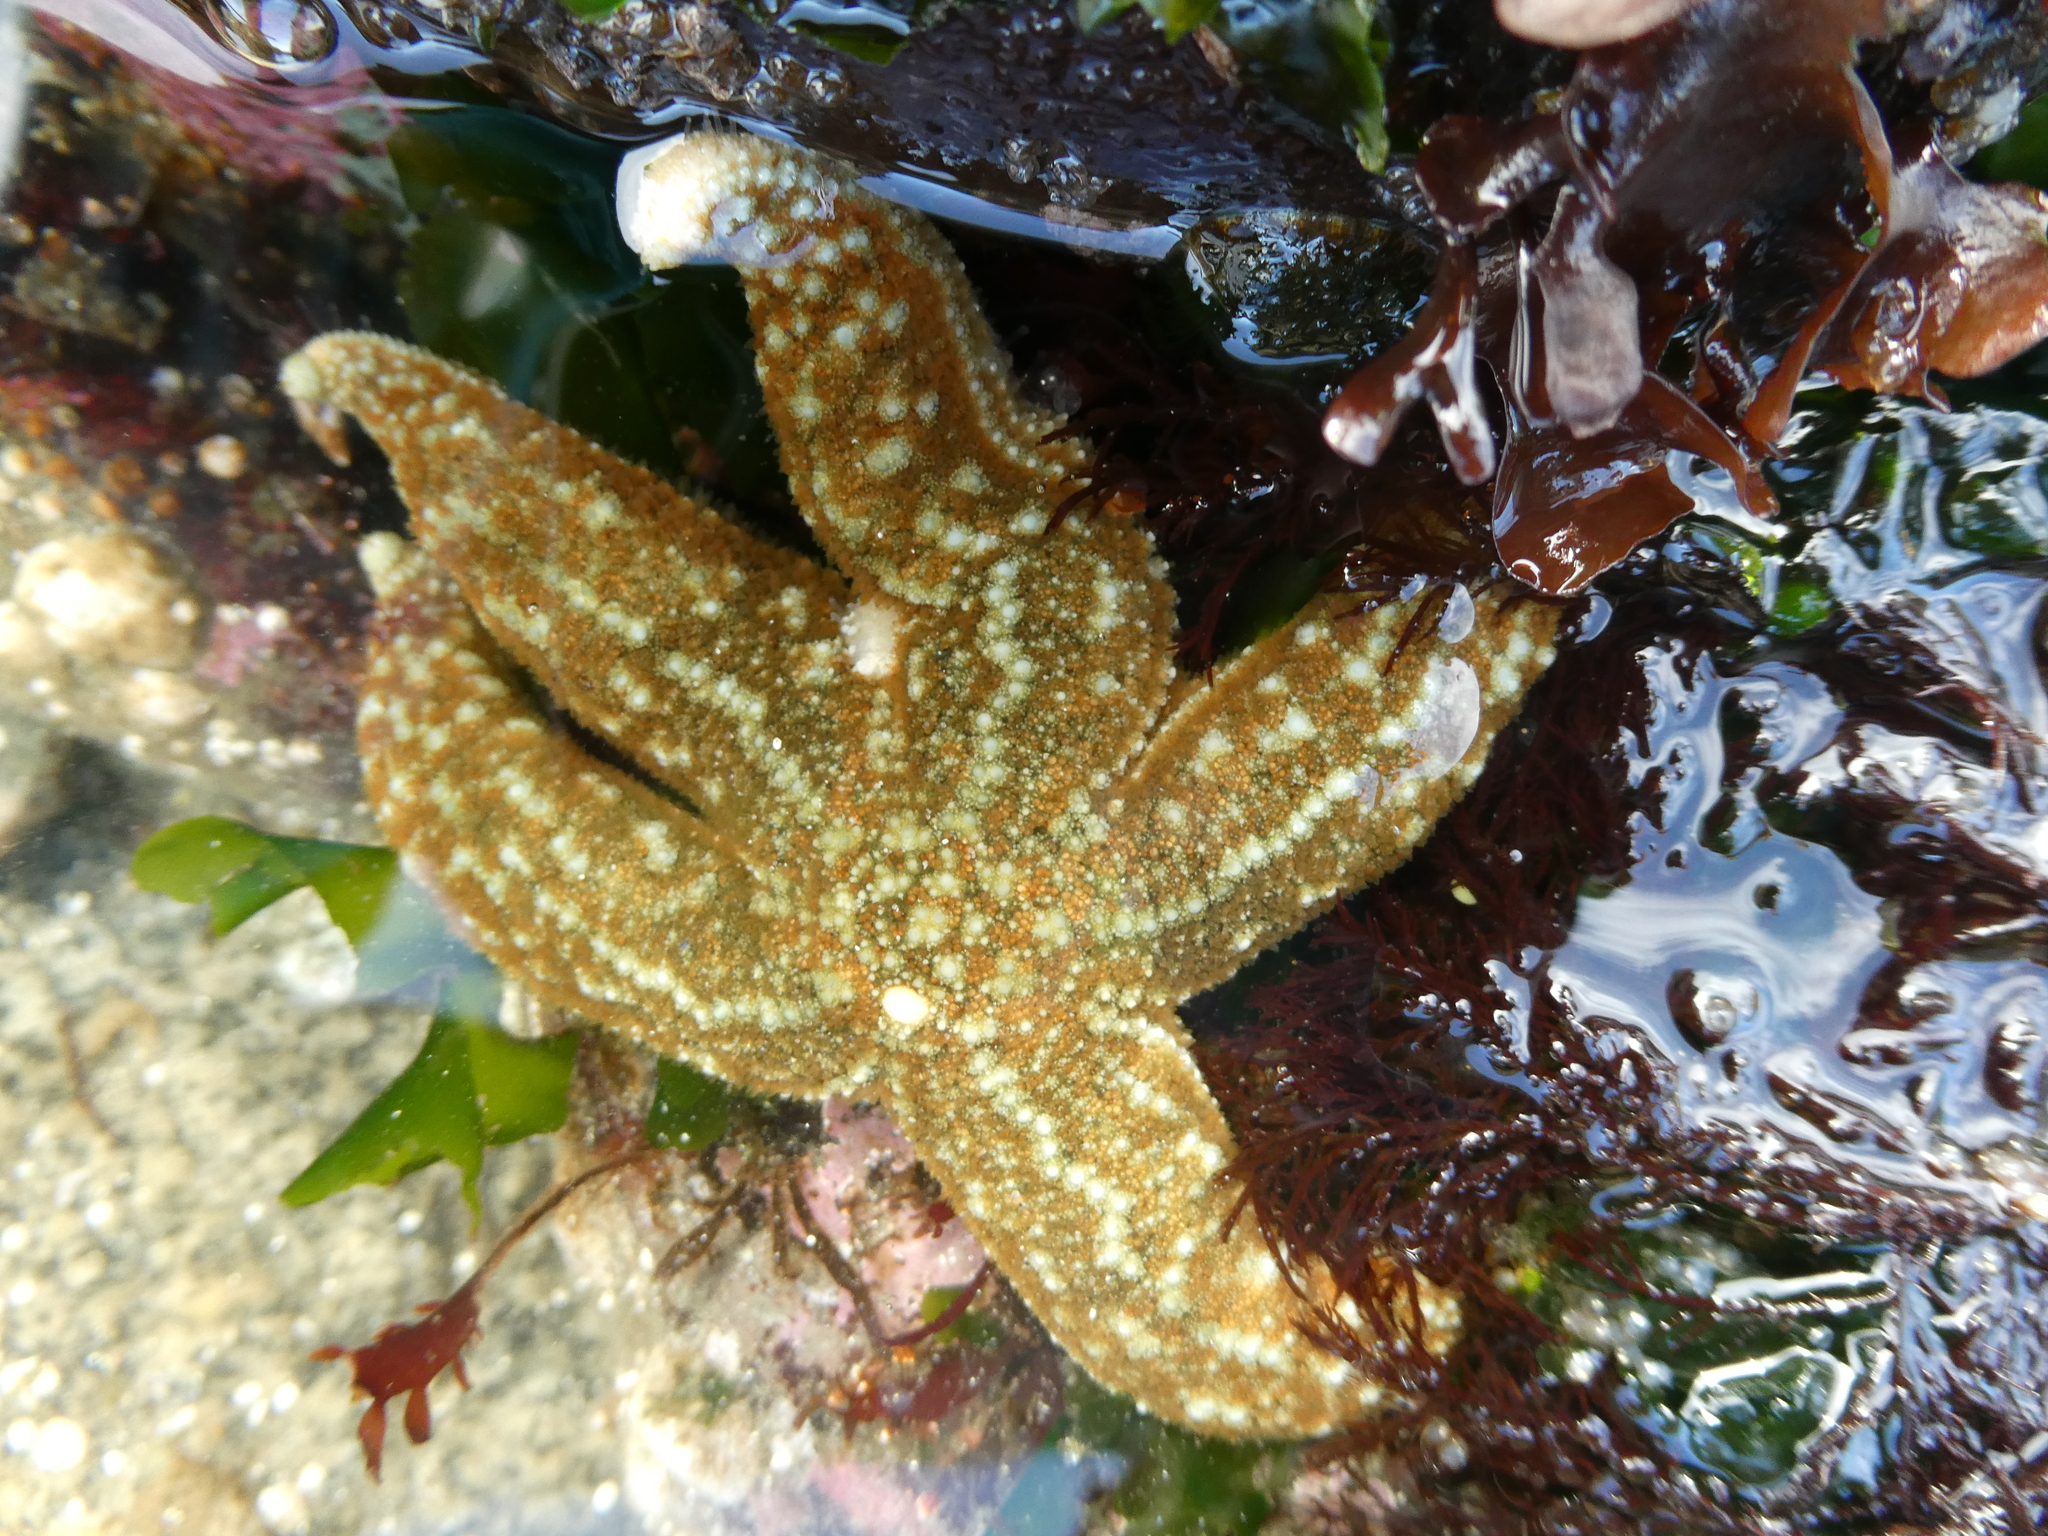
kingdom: Animalia
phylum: Echinodermata
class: Asteroidea
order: Forcipulatida
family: Asteriidae
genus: Evasterias
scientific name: Evasterias troschelii
